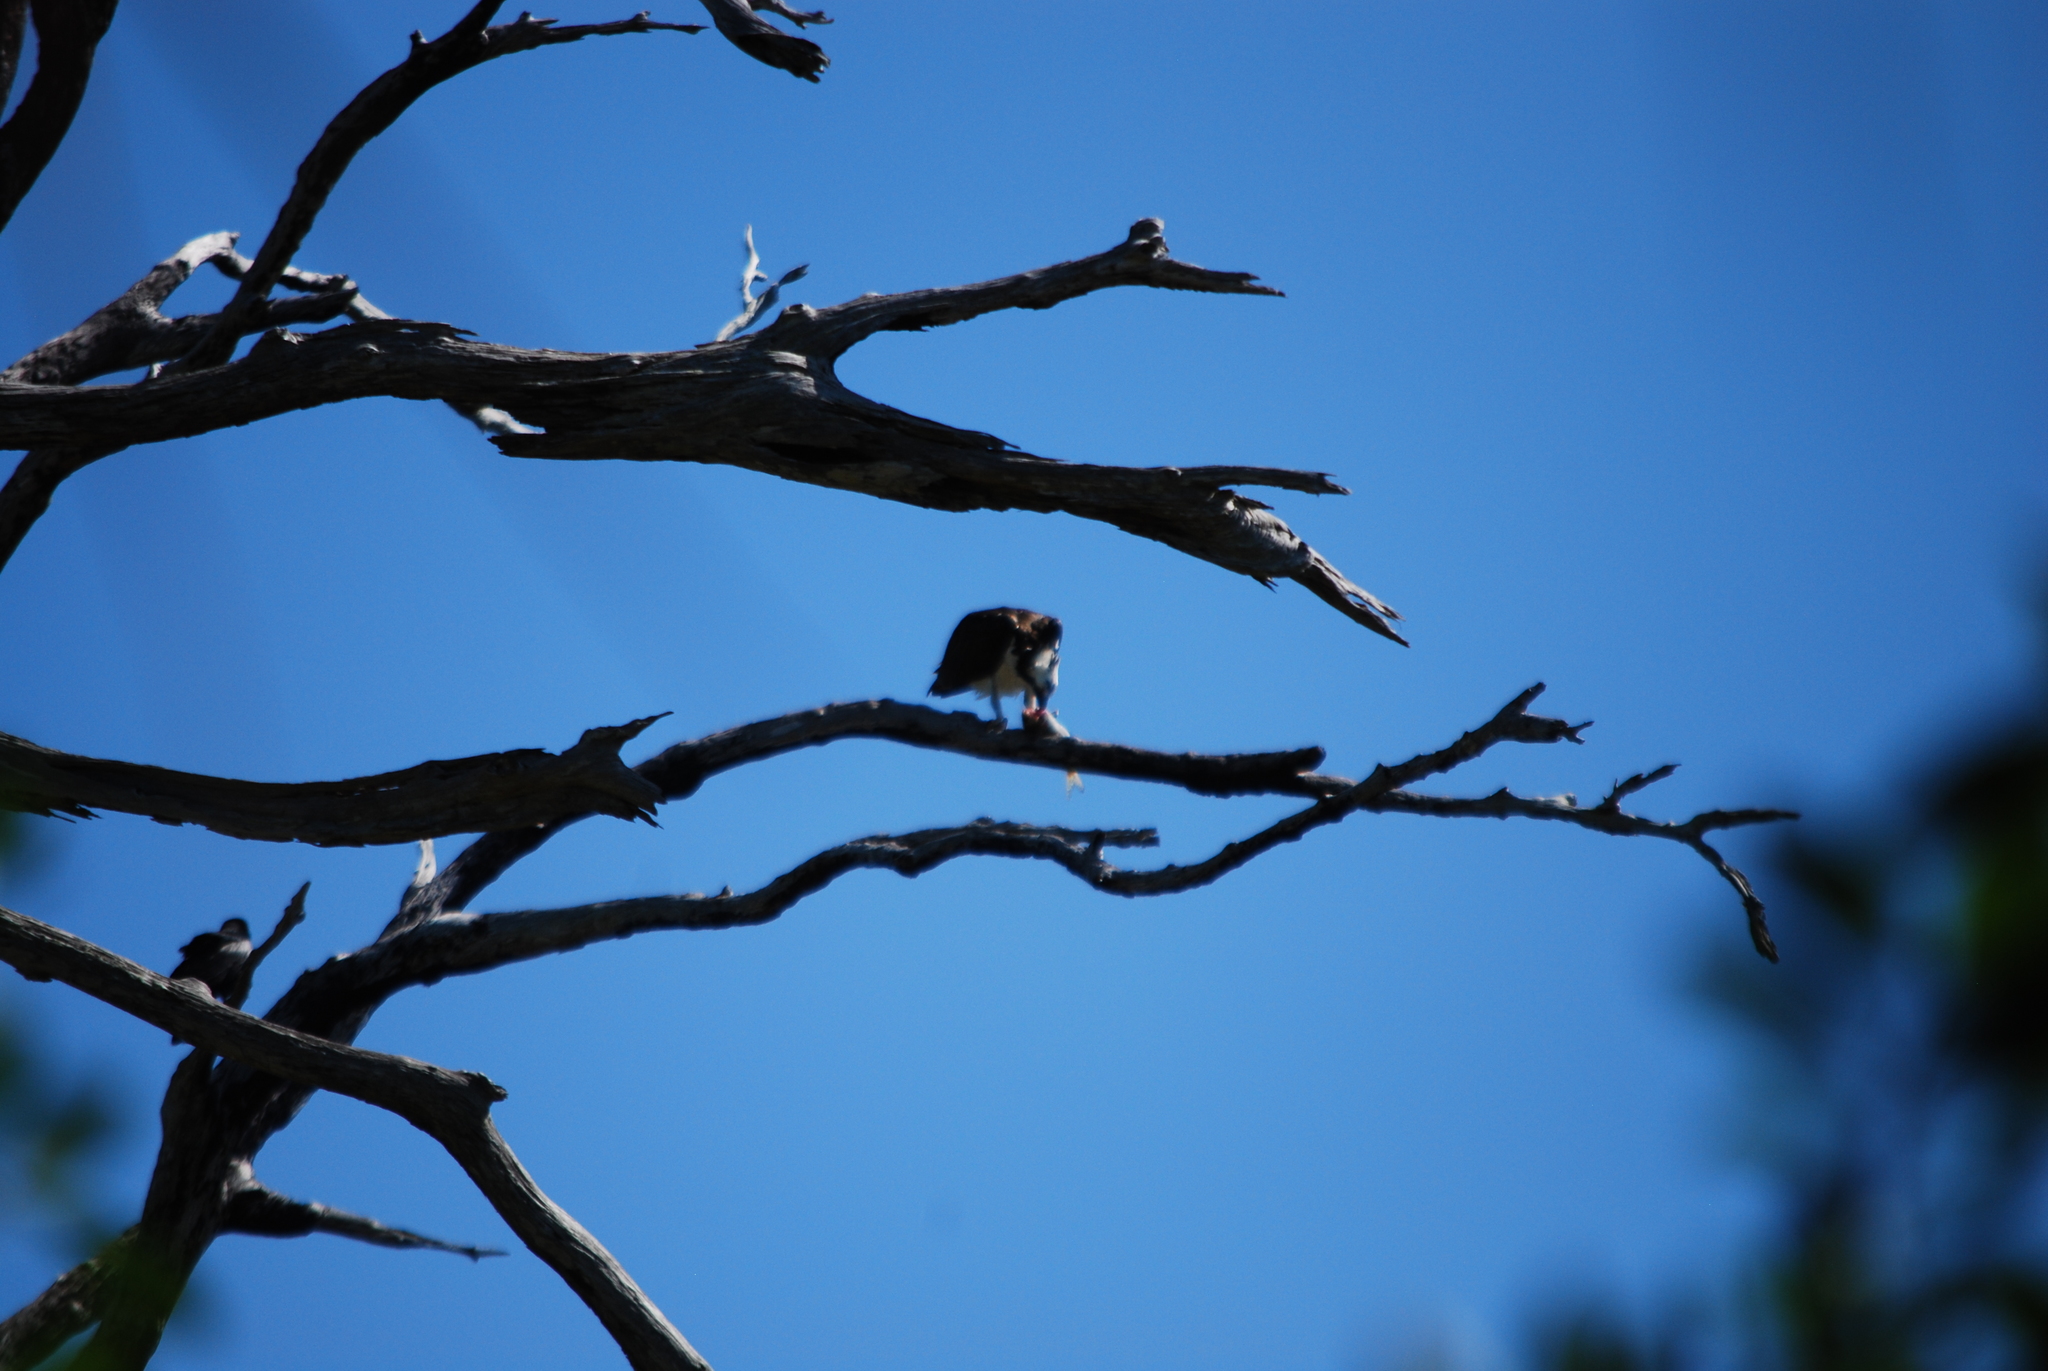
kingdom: Animalia
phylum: Chordata
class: Aves
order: Accipitriformes
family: Pandionidae
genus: Pandion
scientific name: Pandion haliaetus
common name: Osprey
